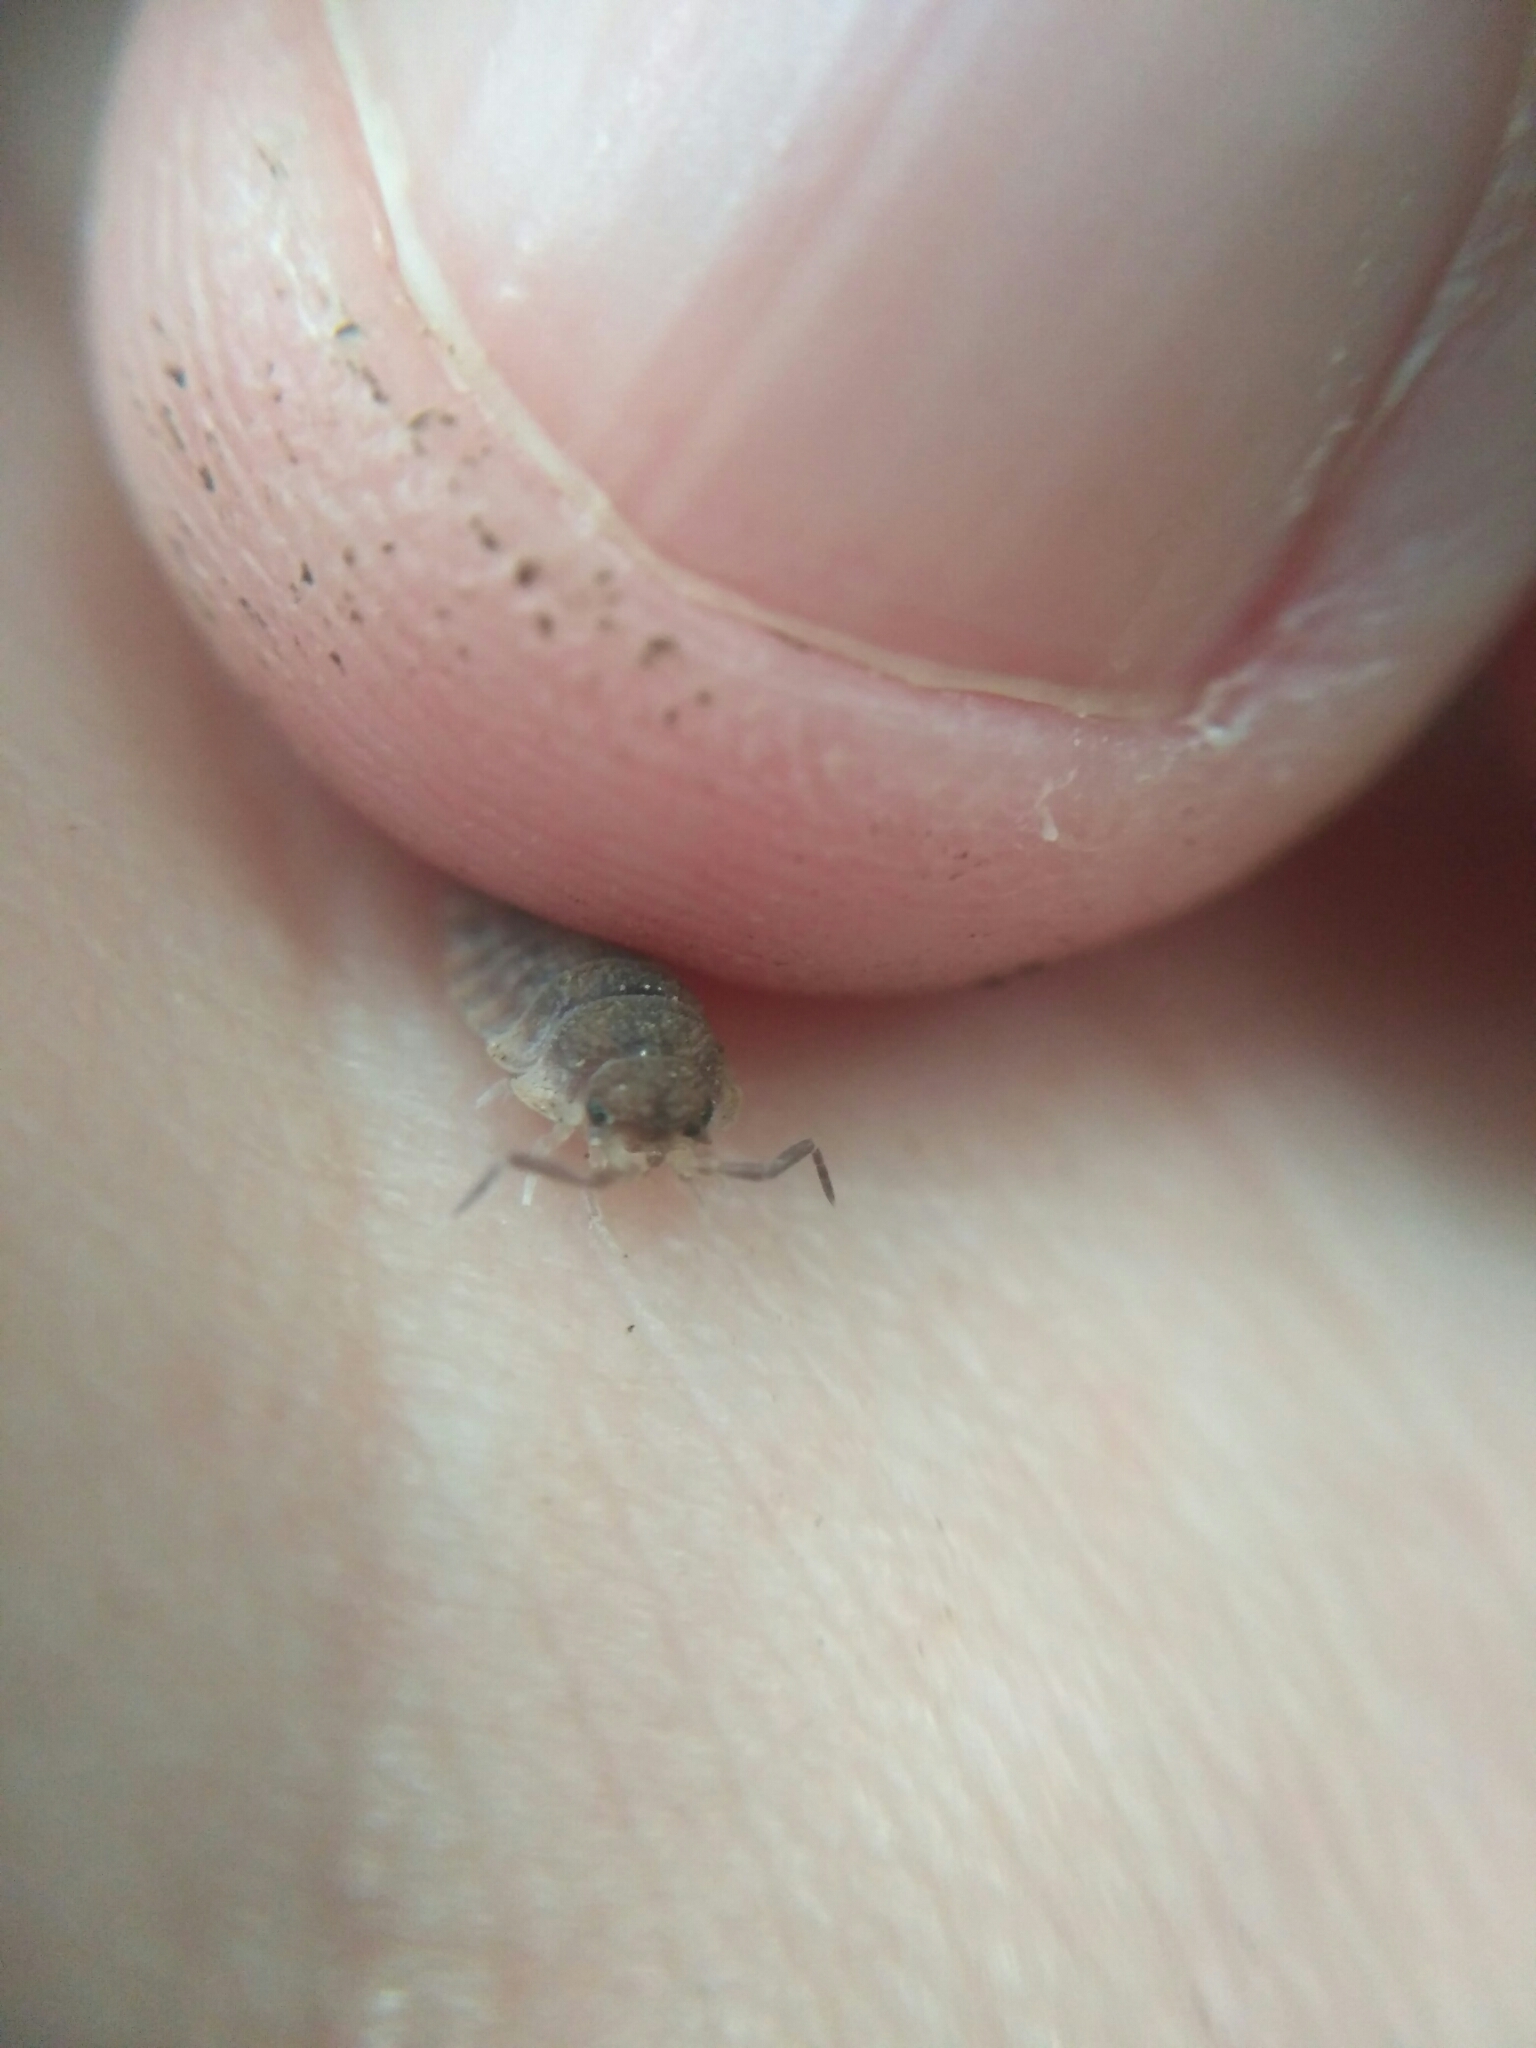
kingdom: Animalia
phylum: Arthropoda
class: Malacostraca
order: Isopoda
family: Oniscidae
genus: Oniscus
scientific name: Oniscus asellus
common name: Common shiny woodlouse
